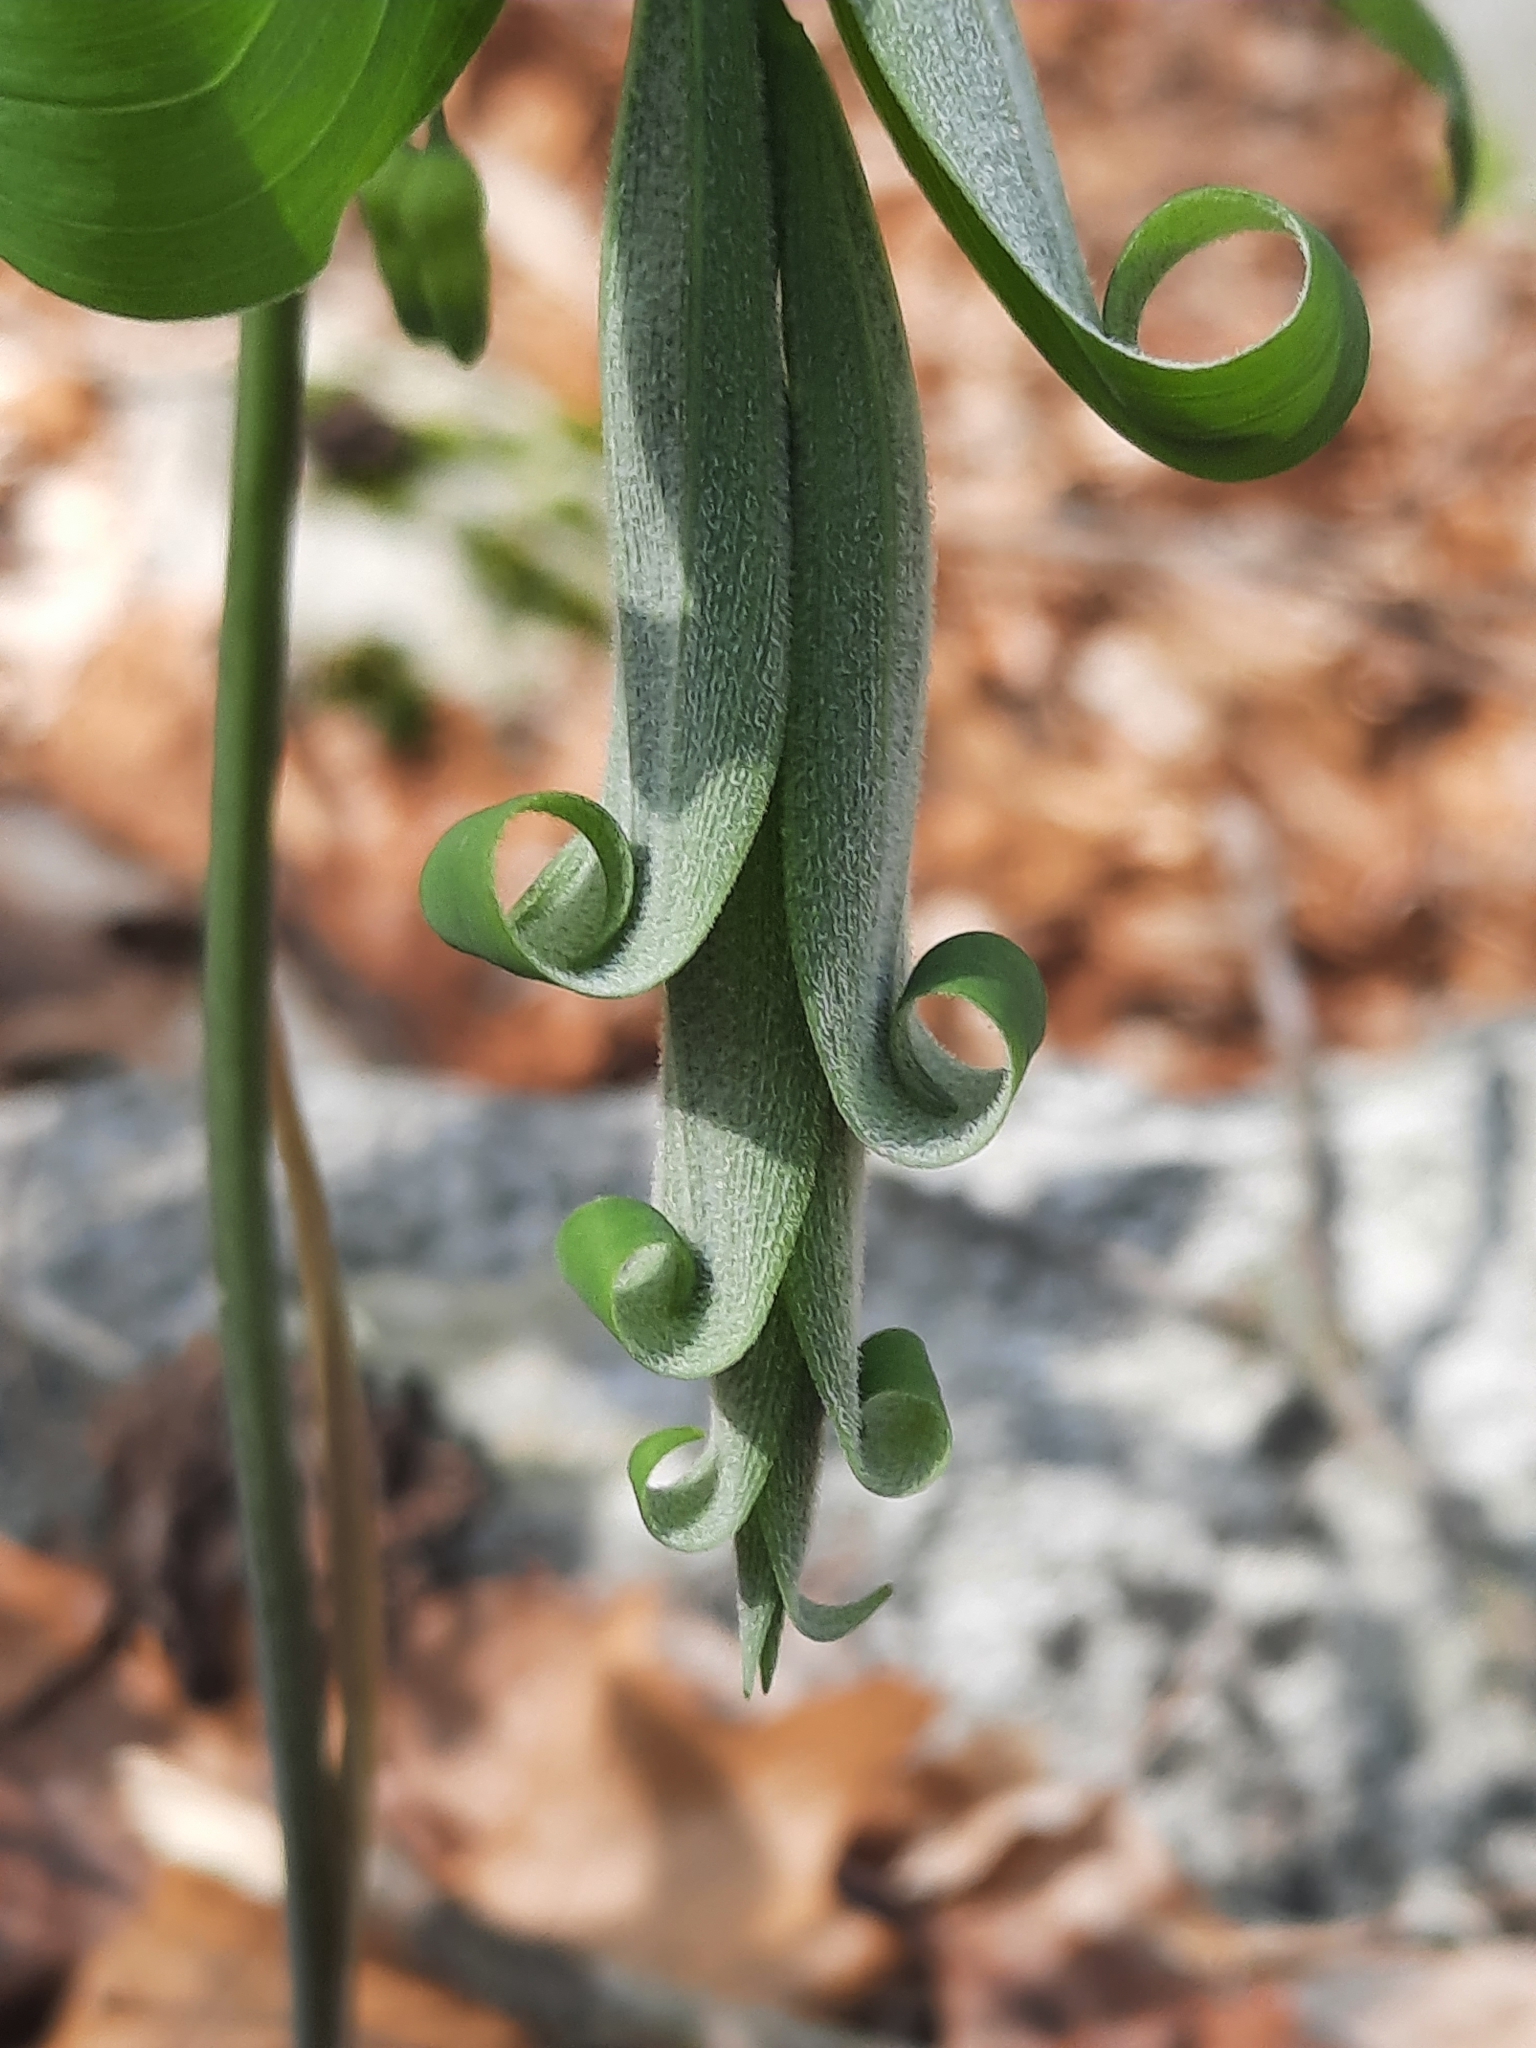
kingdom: Plantae
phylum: Tracheophyta
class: Liliopsida
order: Asparagales
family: Asparagaceae
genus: Polygonatum
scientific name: Polygonatum pubescens
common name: Downy solomon's seal
